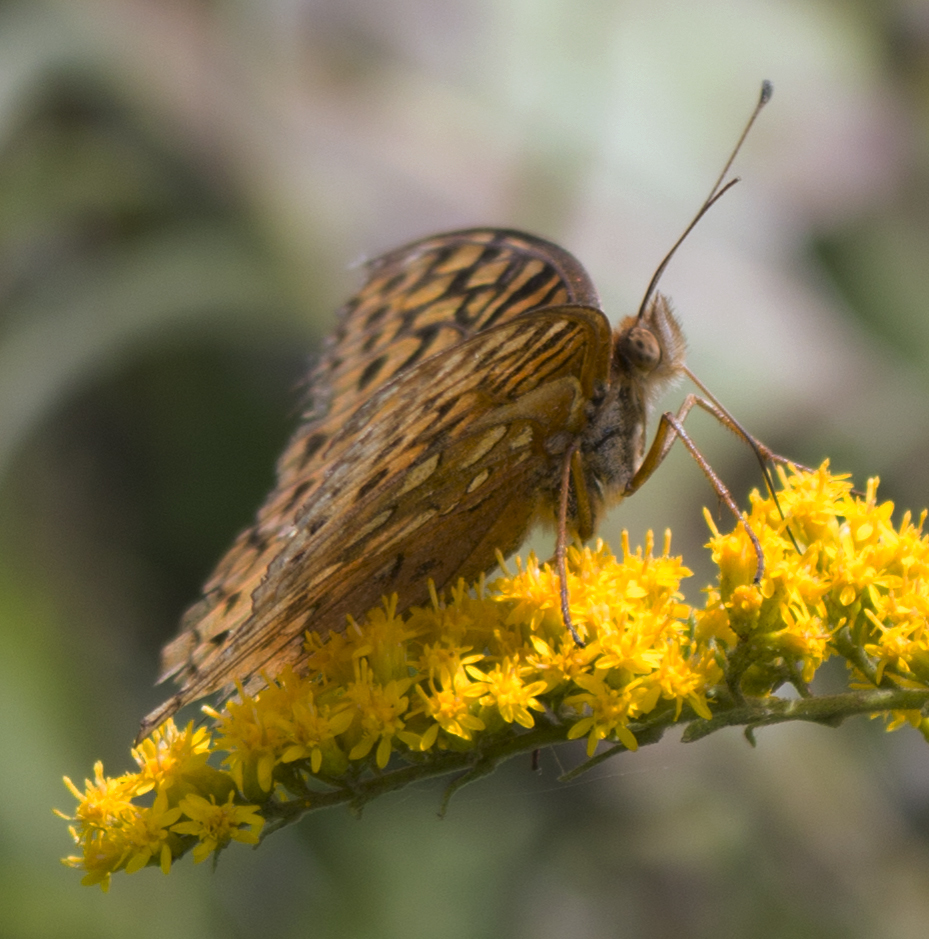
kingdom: Animalia
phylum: Arthropoda
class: Insecta
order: Lepidoptera
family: Nymphalidae
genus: Speyeria
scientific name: Speyeria cybele
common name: Great spangled fritillary
